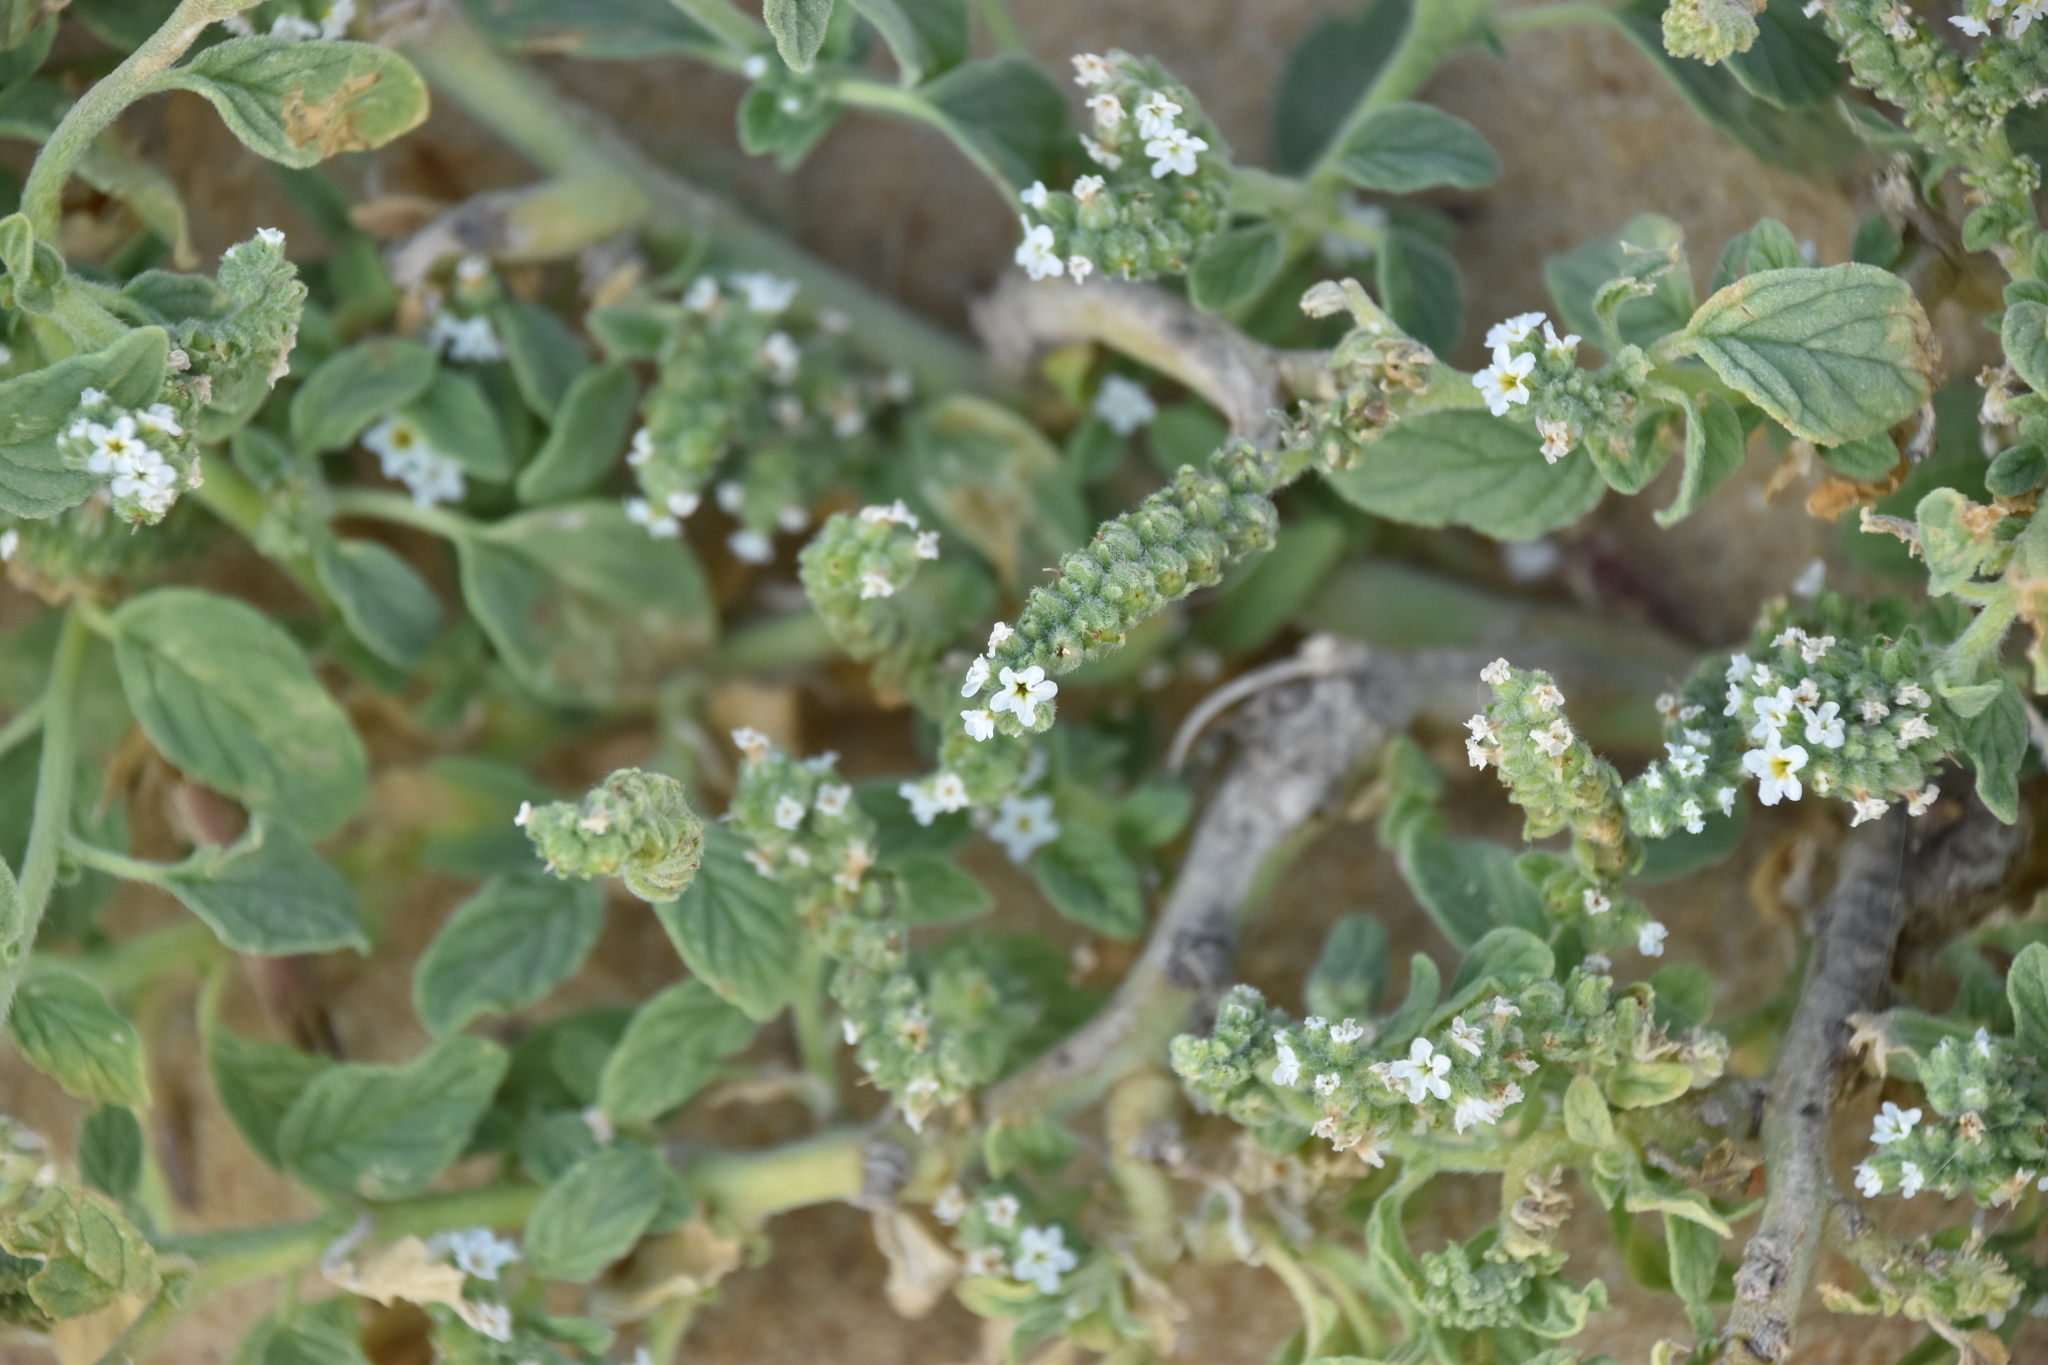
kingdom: Plantae
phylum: Tracheophyta
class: Magnoliopsida
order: Boraginales
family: Heliotropiaceae
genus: Heliotropium
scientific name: Heliotropium europaeum
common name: European heliotrope
